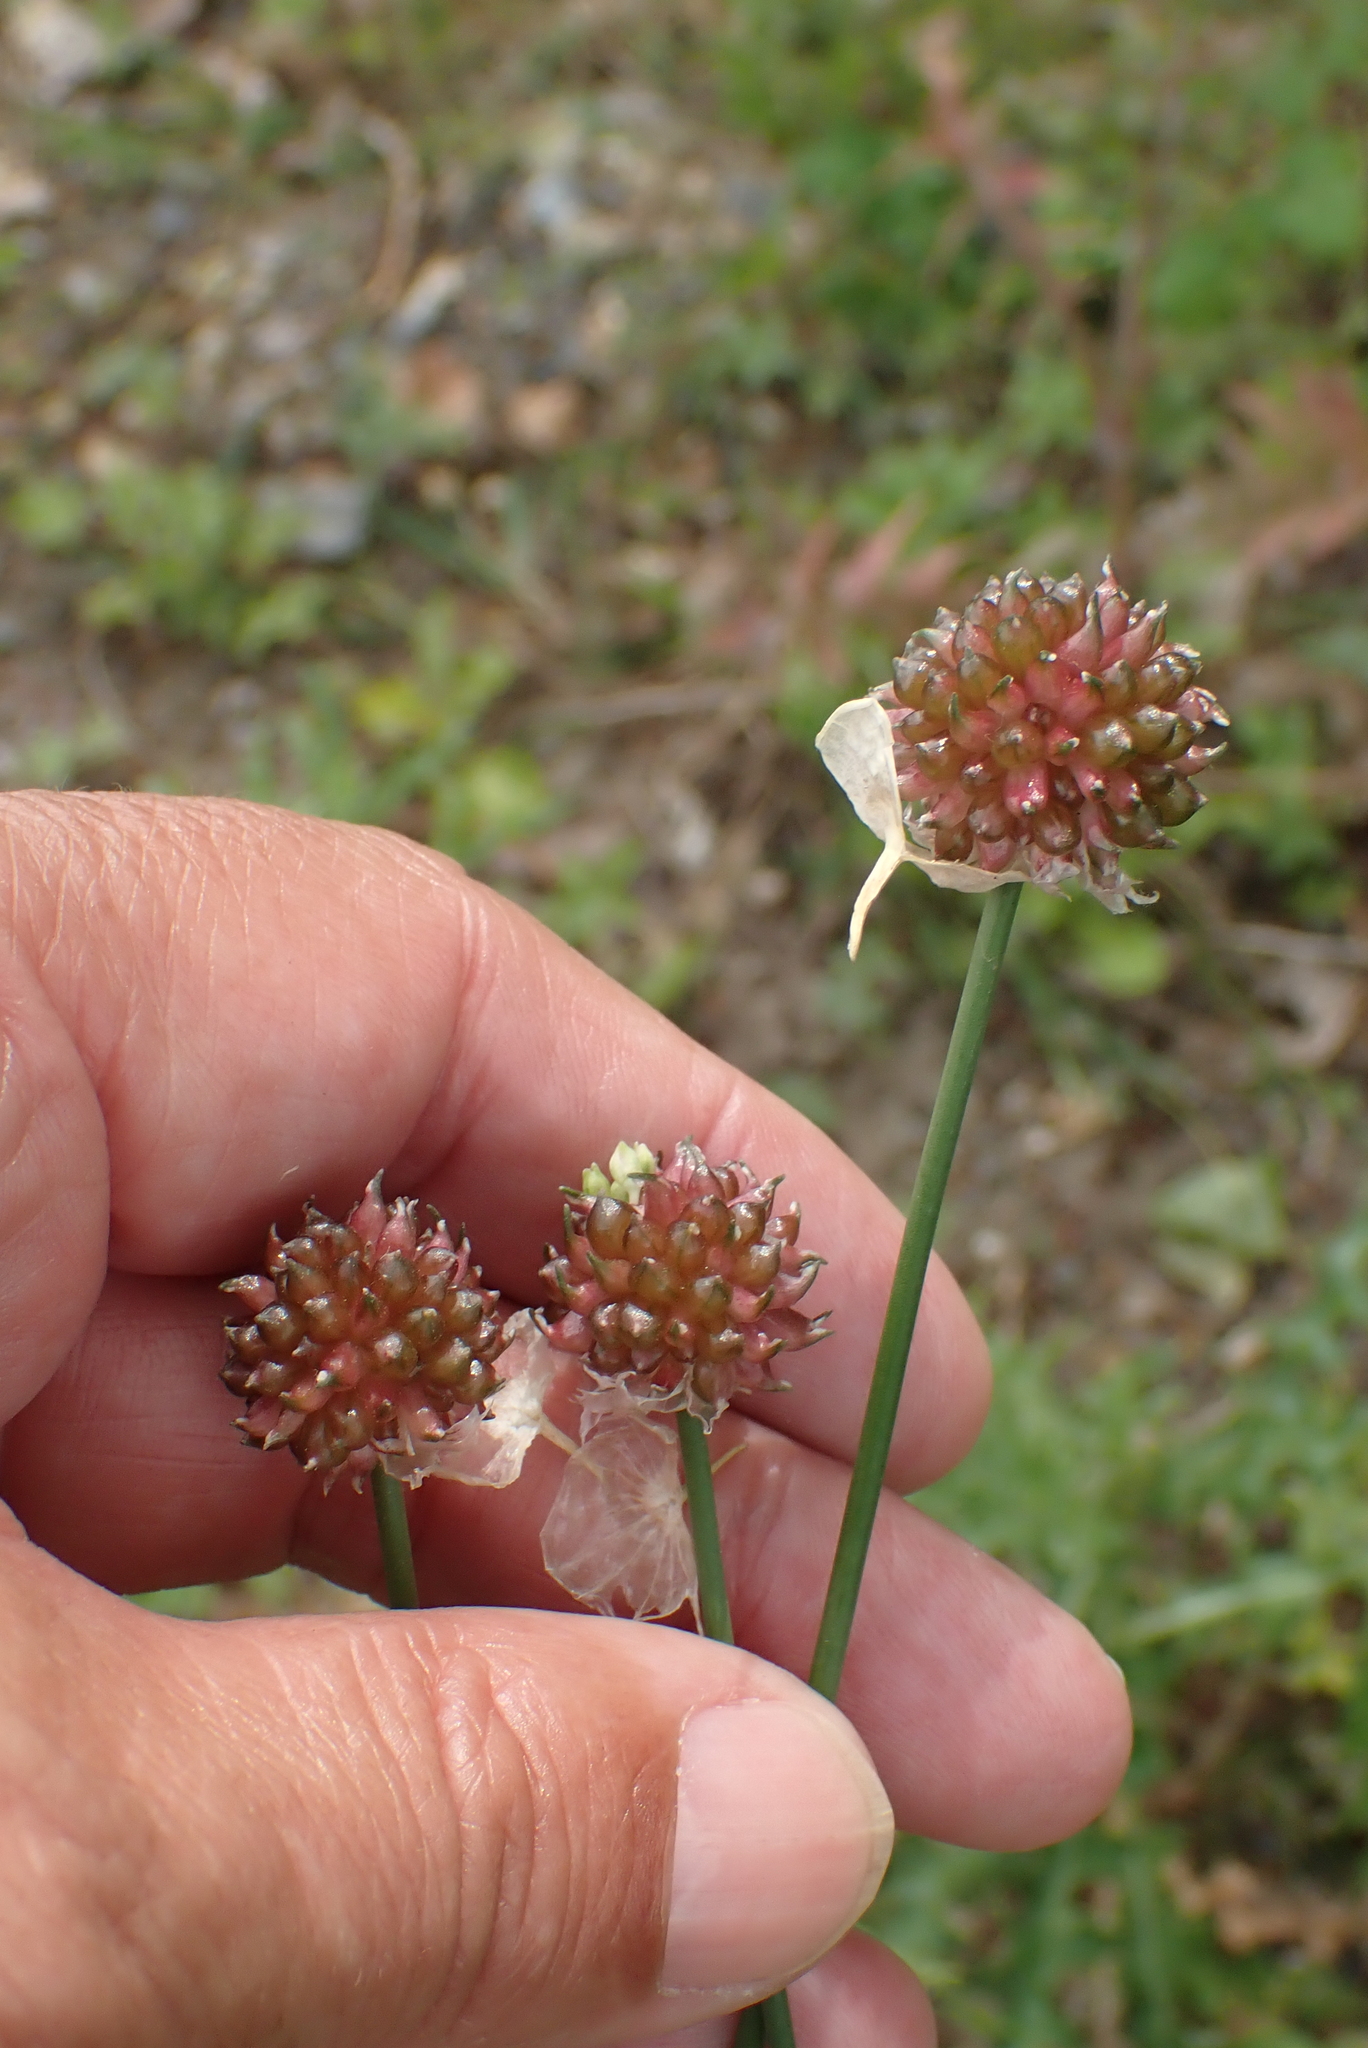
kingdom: Plantae
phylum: Tracheophyta
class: Liliopsida
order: Asparagales
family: Amaryllidaceae
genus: Allium
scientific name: Allium vineale
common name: Crow garlic
